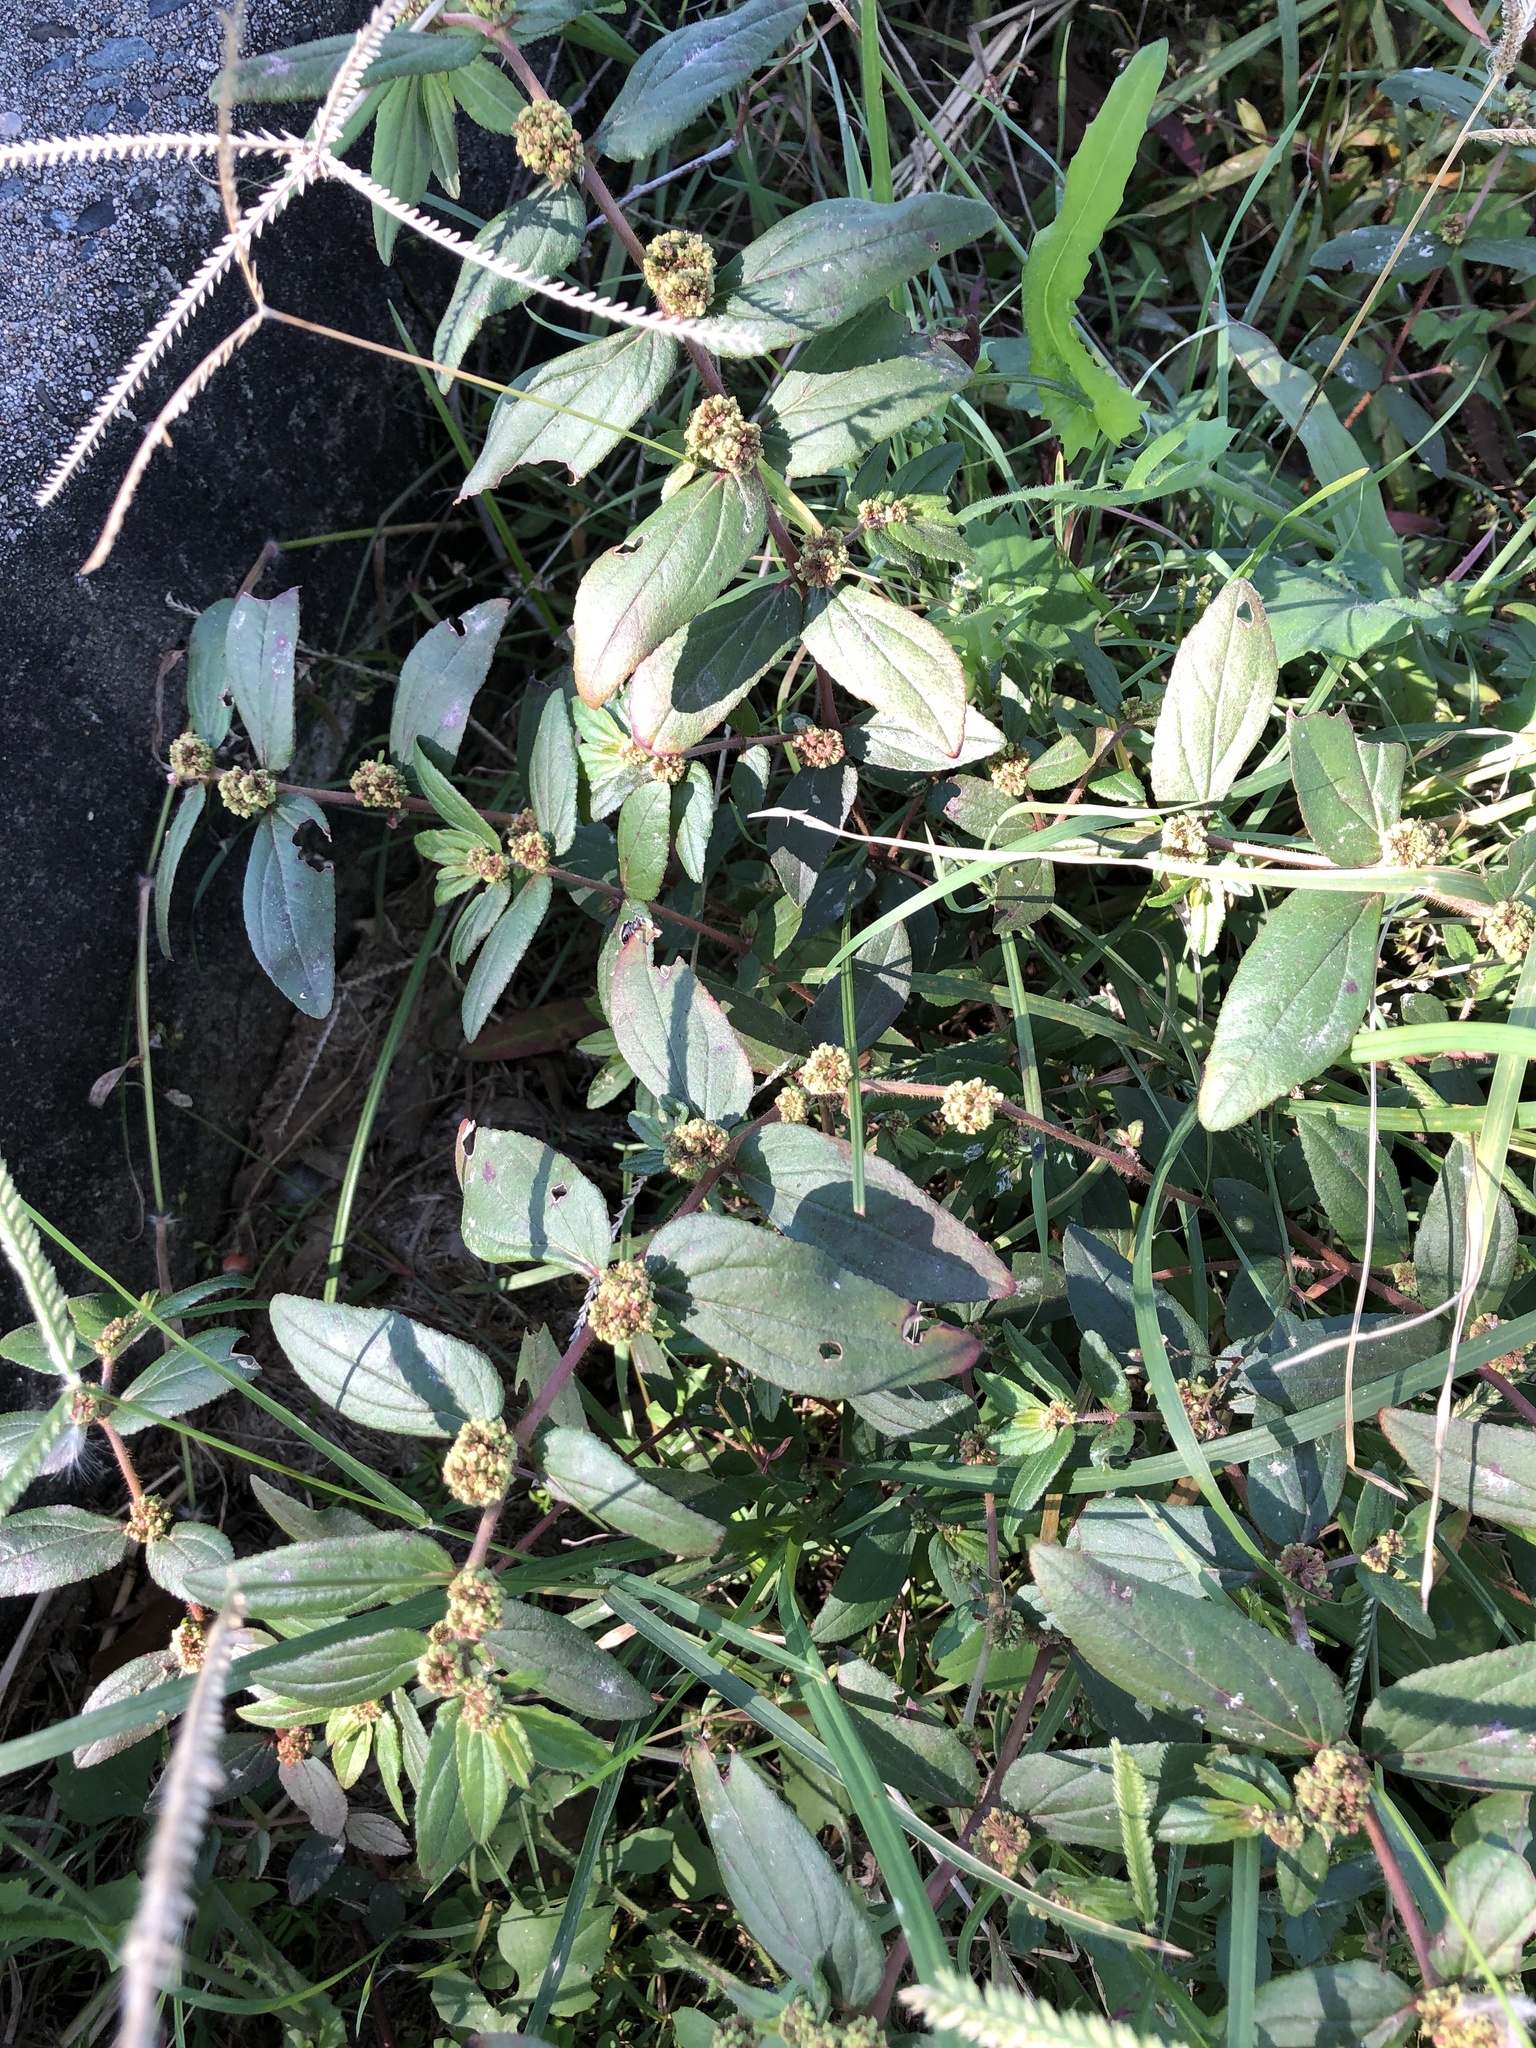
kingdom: Plantae
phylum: Tracheophyta
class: Magnoliopsida
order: Malpighiales
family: Euphorbiaceae
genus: Euphorbia
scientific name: Euphorbia hirta
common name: Pillpod sandmat
